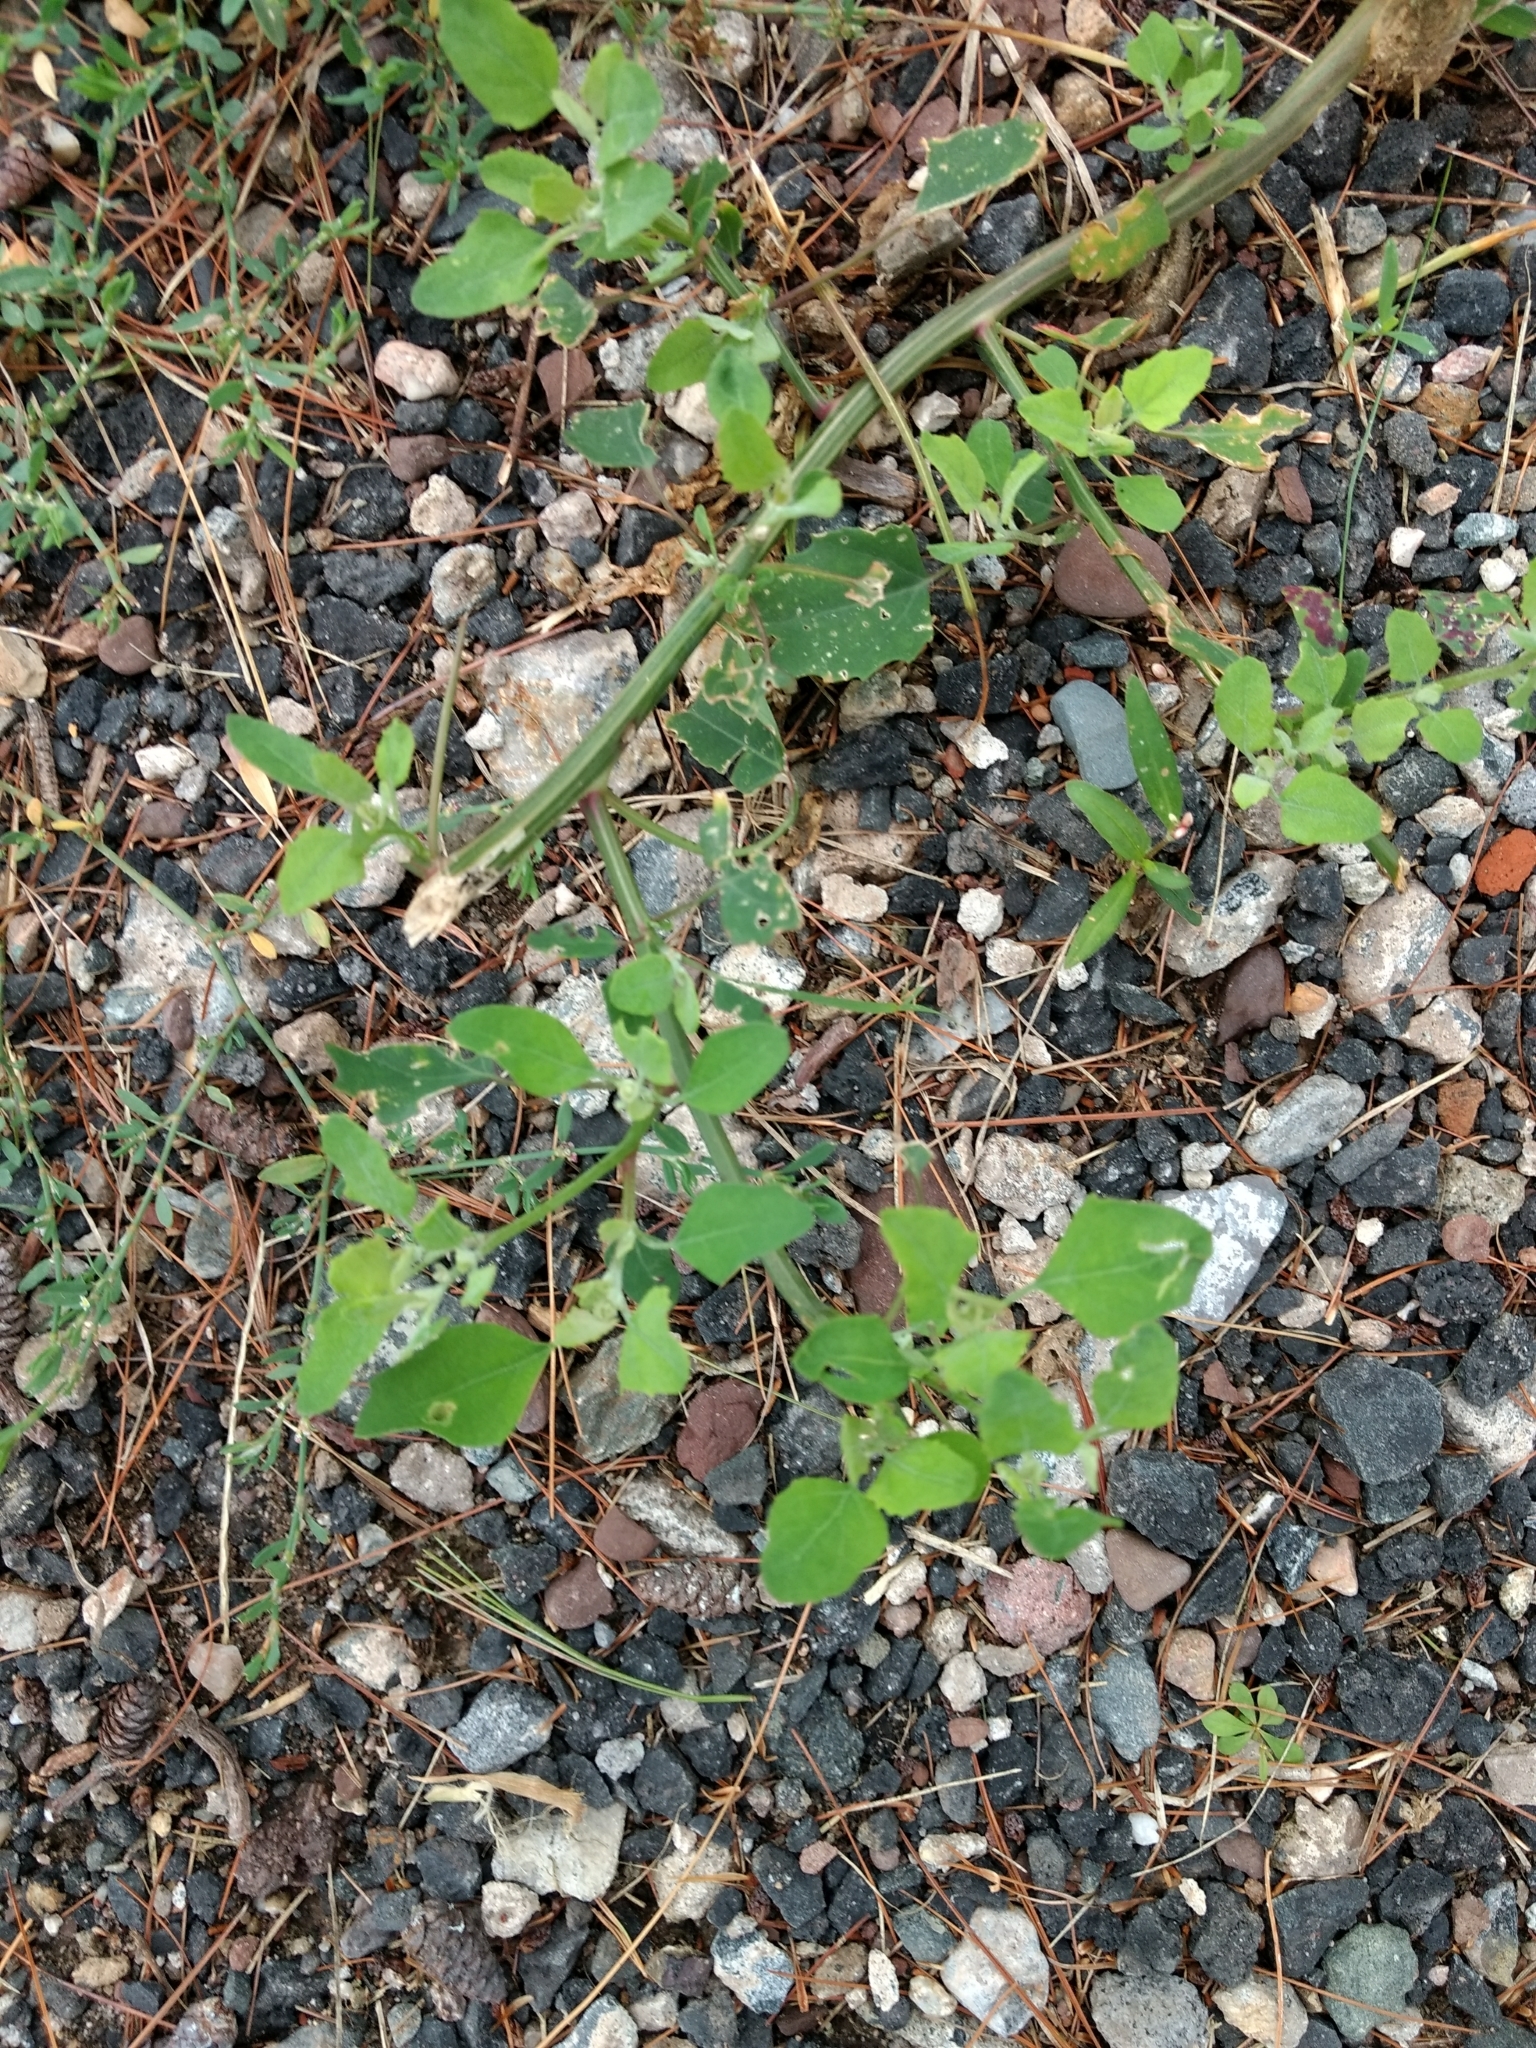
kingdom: Plantae
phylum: Tracheophyta
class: Magnoliopsida
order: Caryophyllales
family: Amaranthaceae
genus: Chenopodium
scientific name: Chenopodium album
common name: Fat-hen
